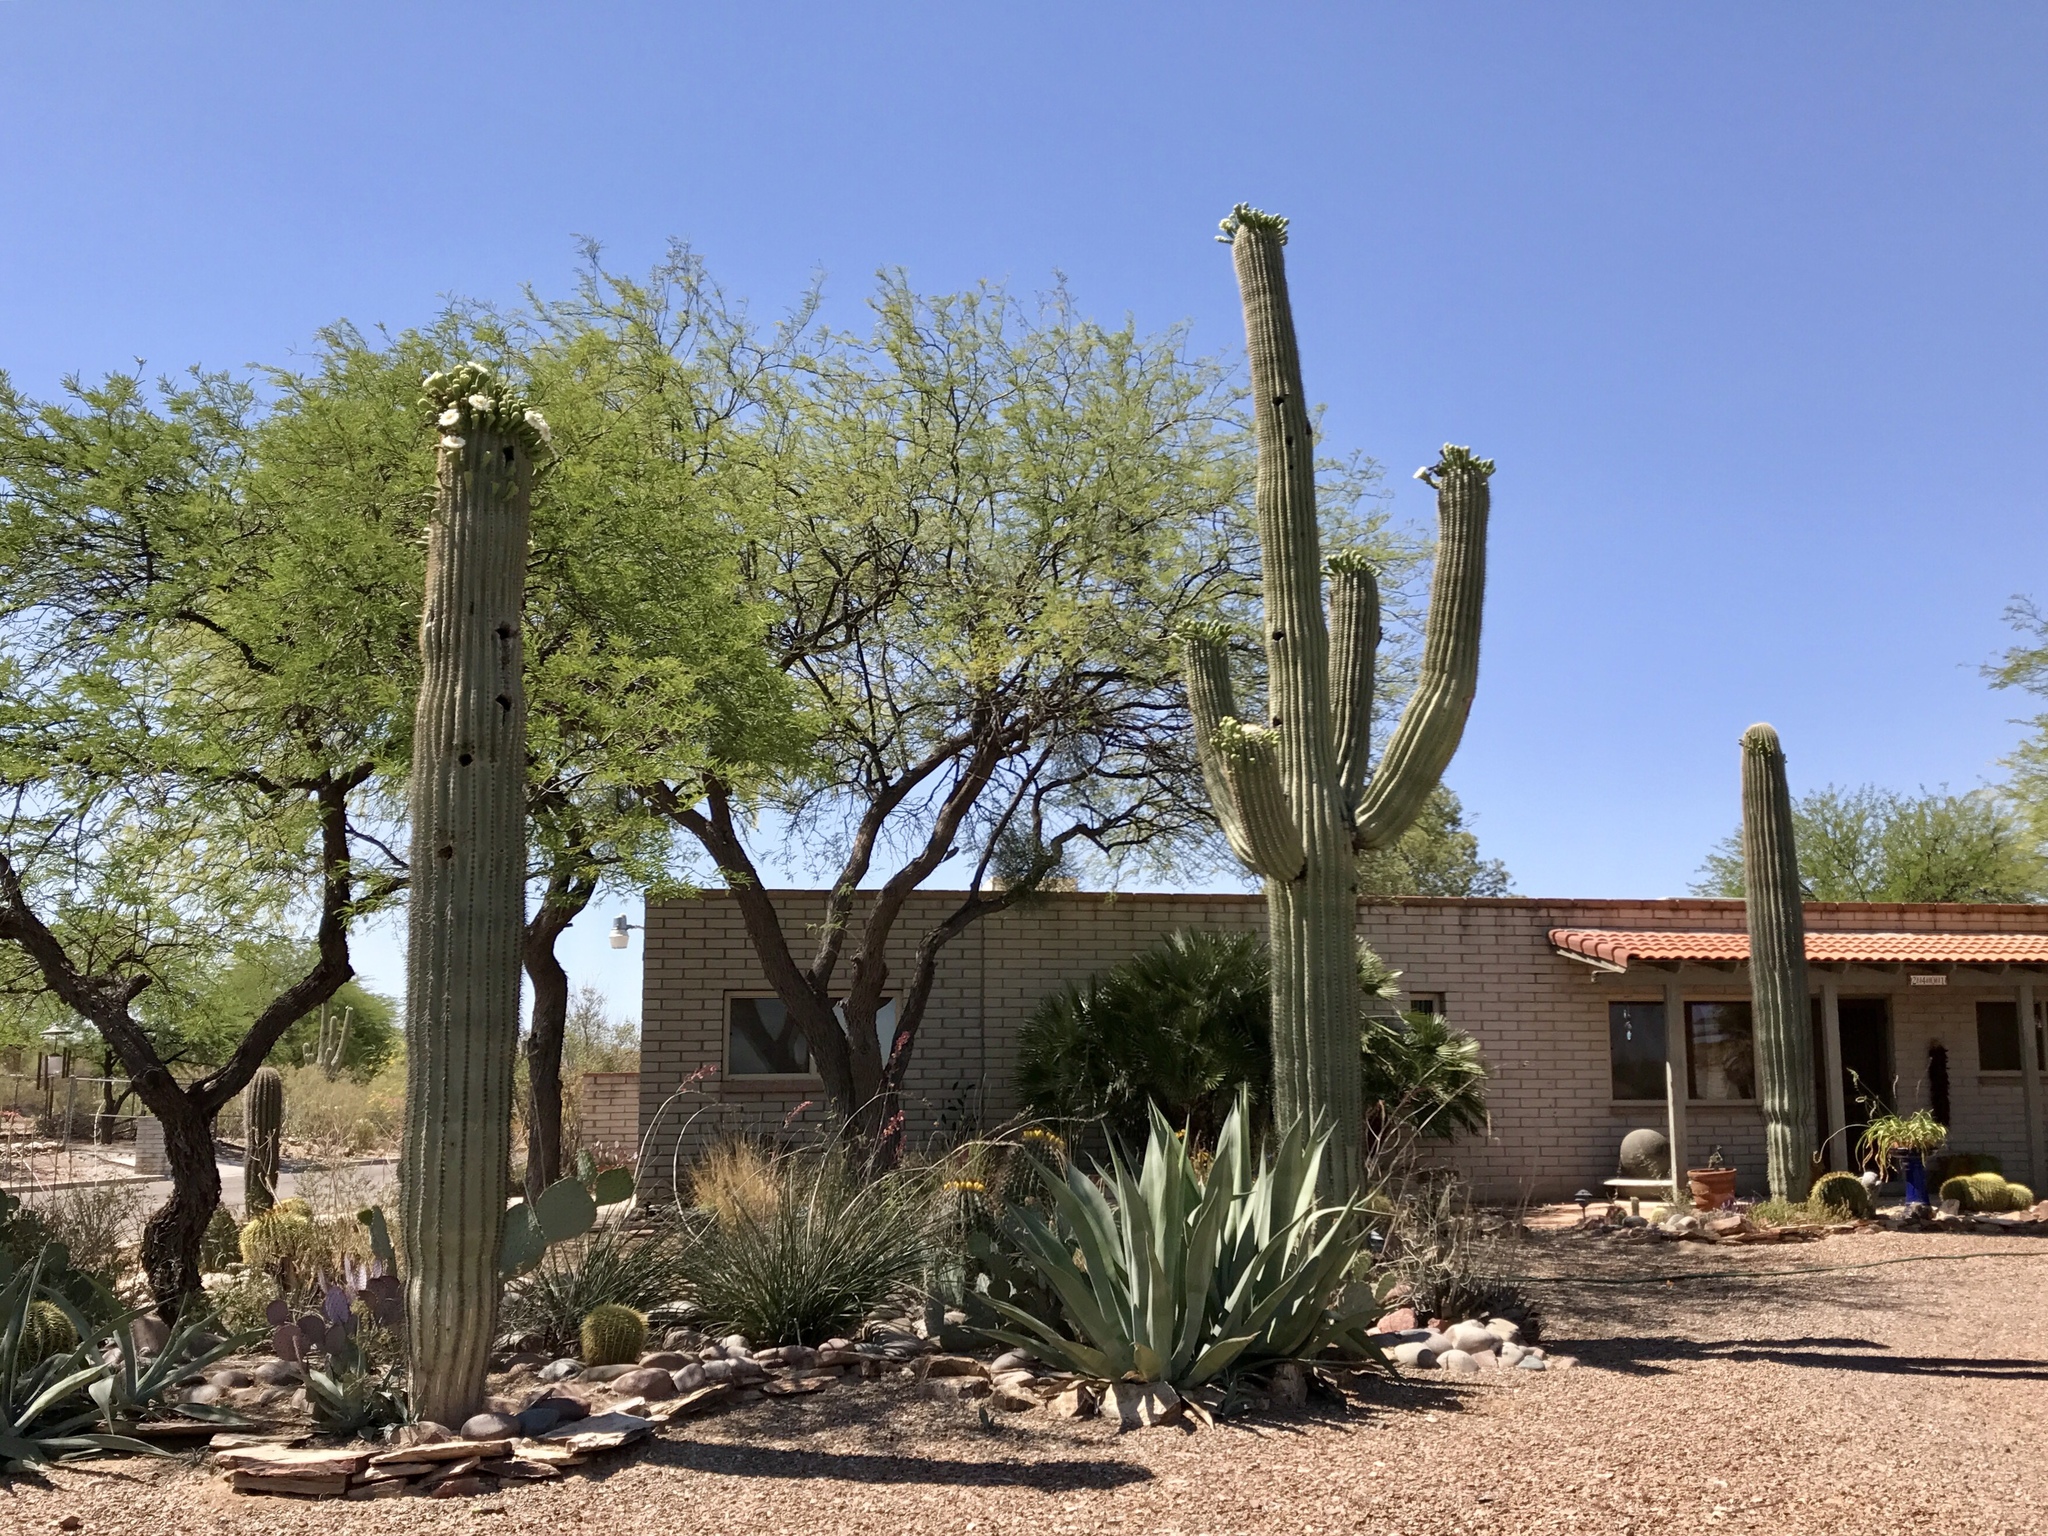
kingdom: Plantae
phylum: Tracheophyta
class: Magnoliopsida
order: Caryophyllales
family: Cactaceae
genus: Carnegiea
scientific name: Carnegiea gigantea
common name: Saguaro
